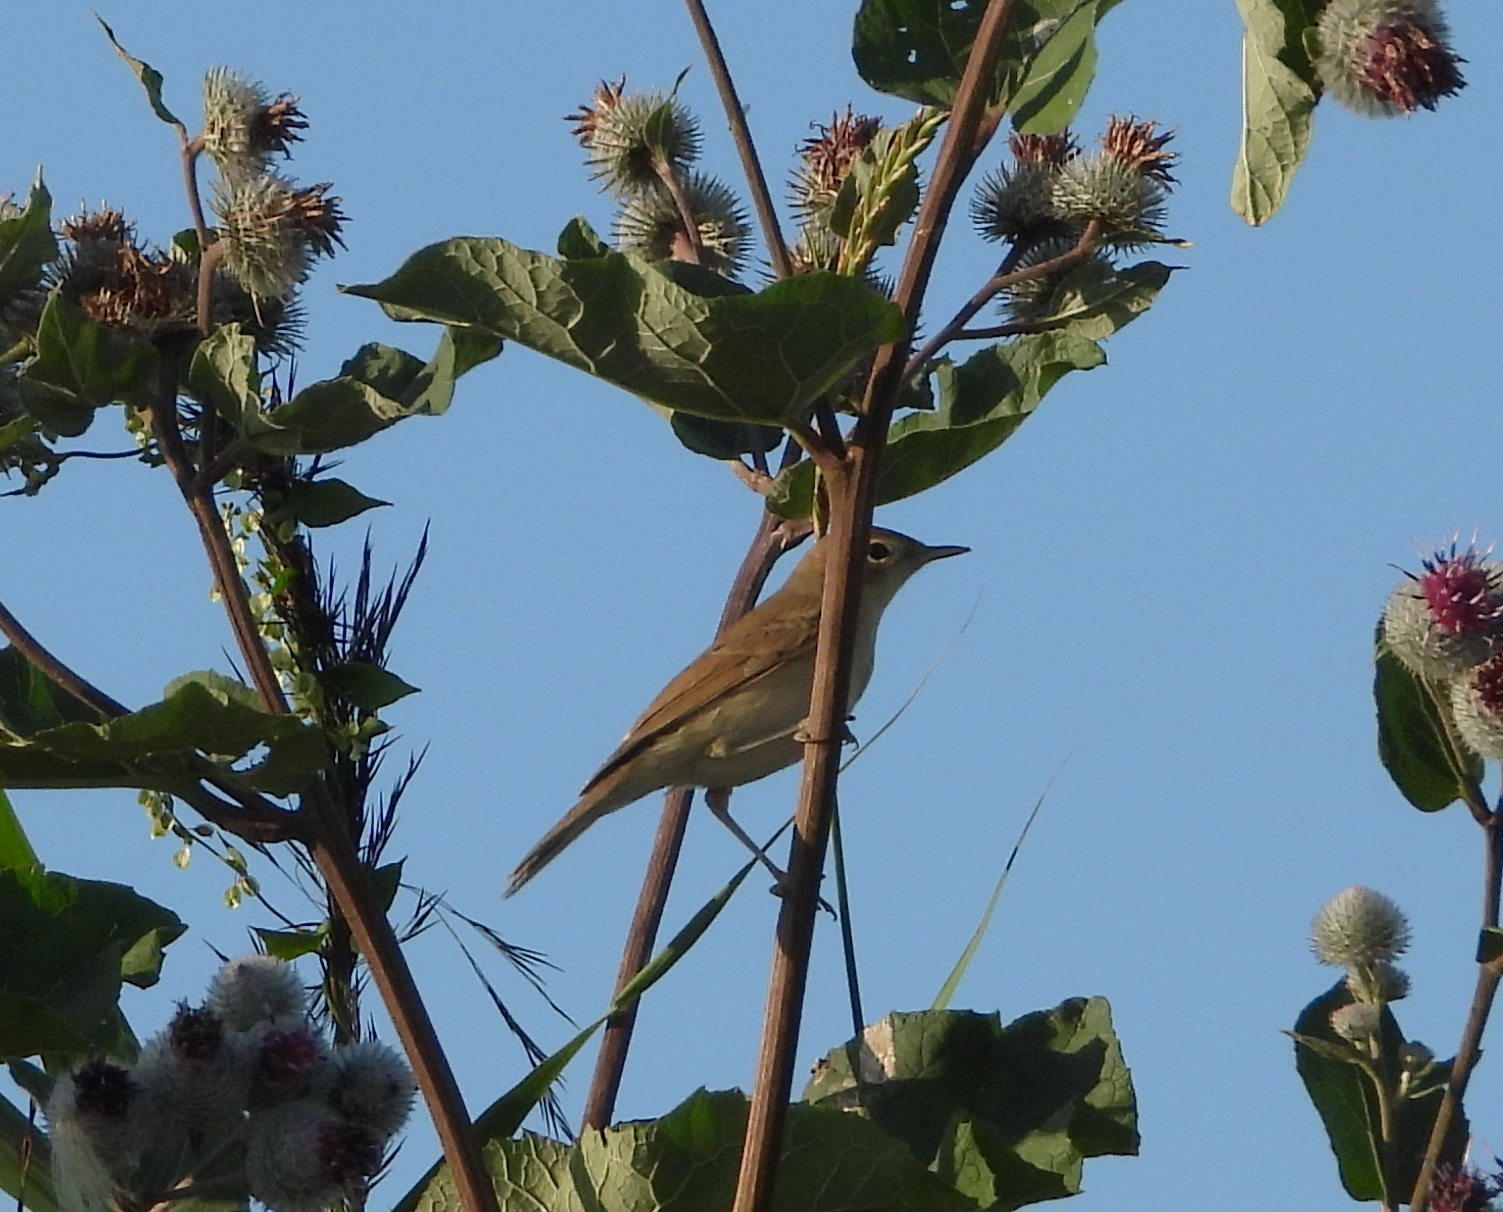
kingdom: Animalia
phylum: Chordata
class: Aves
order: Passeriformes
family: Acrocephalidae
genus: Iduna
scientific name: Iduna caligata
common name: Booted warbler
